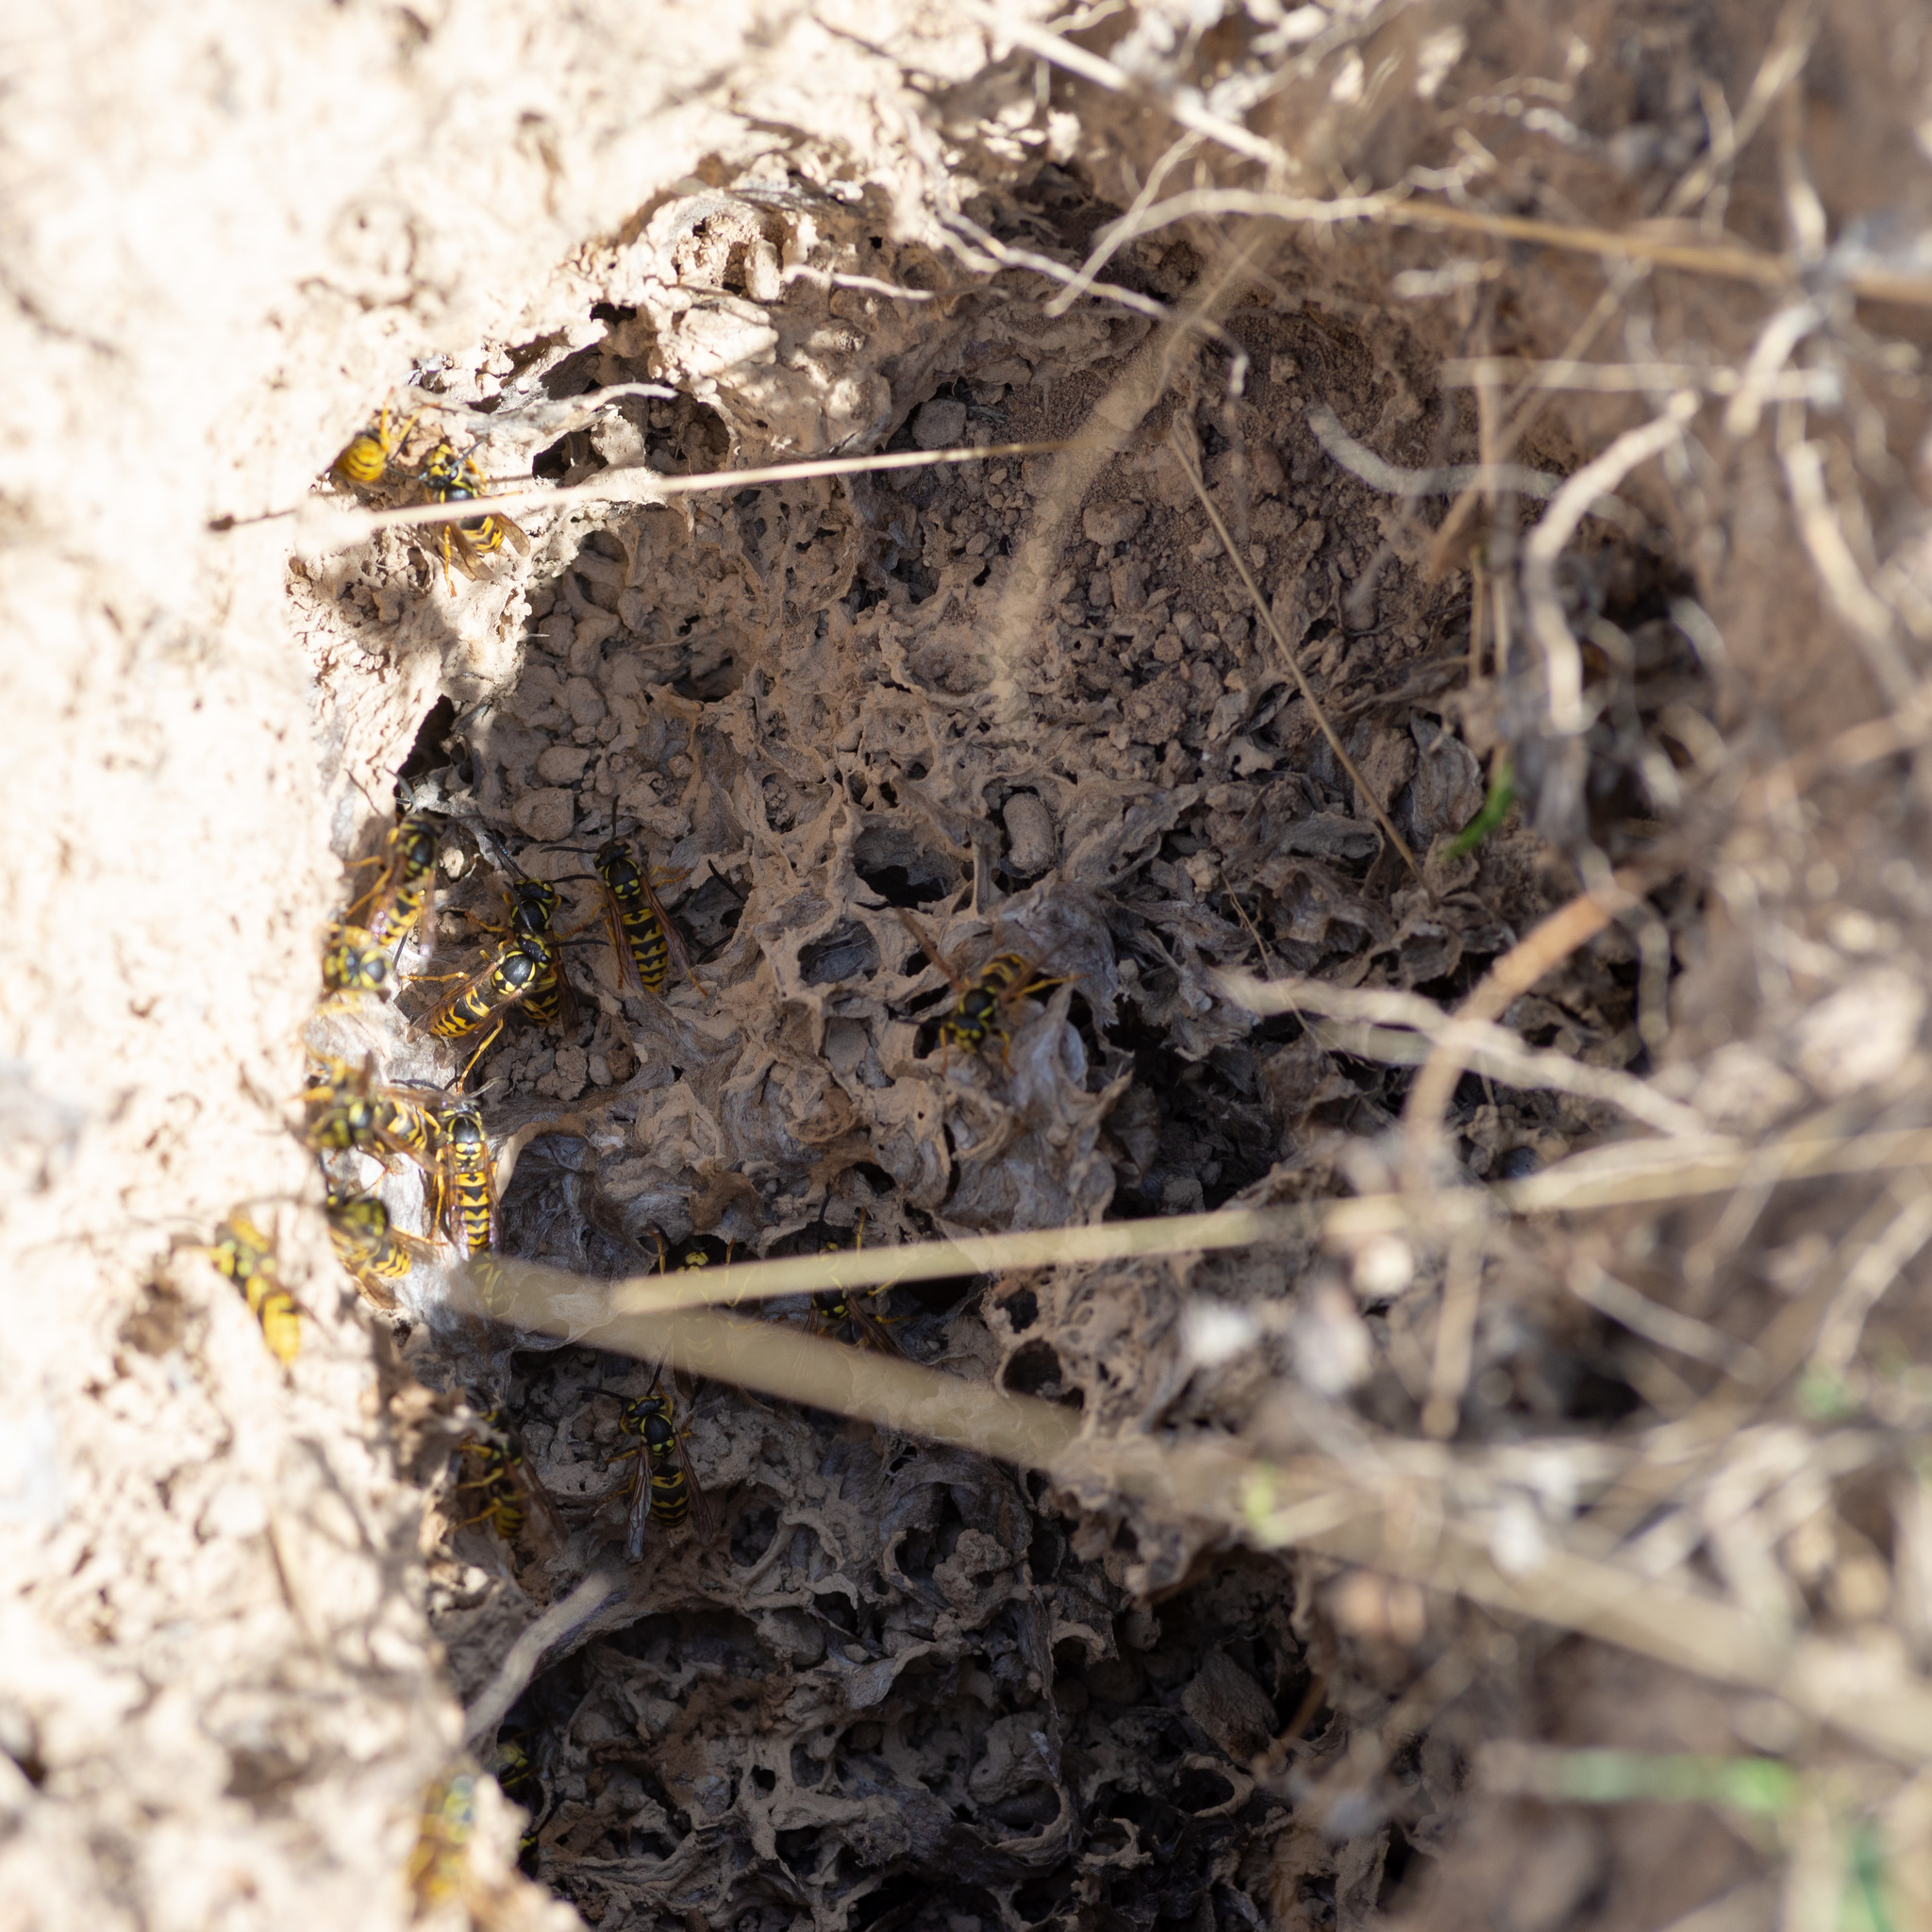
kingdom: Animalia
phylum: Arthropoda
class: Insecta
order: Hymenoptera
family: Vespidae
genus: Vespula
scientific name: Vespula germanica
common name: German wasp
